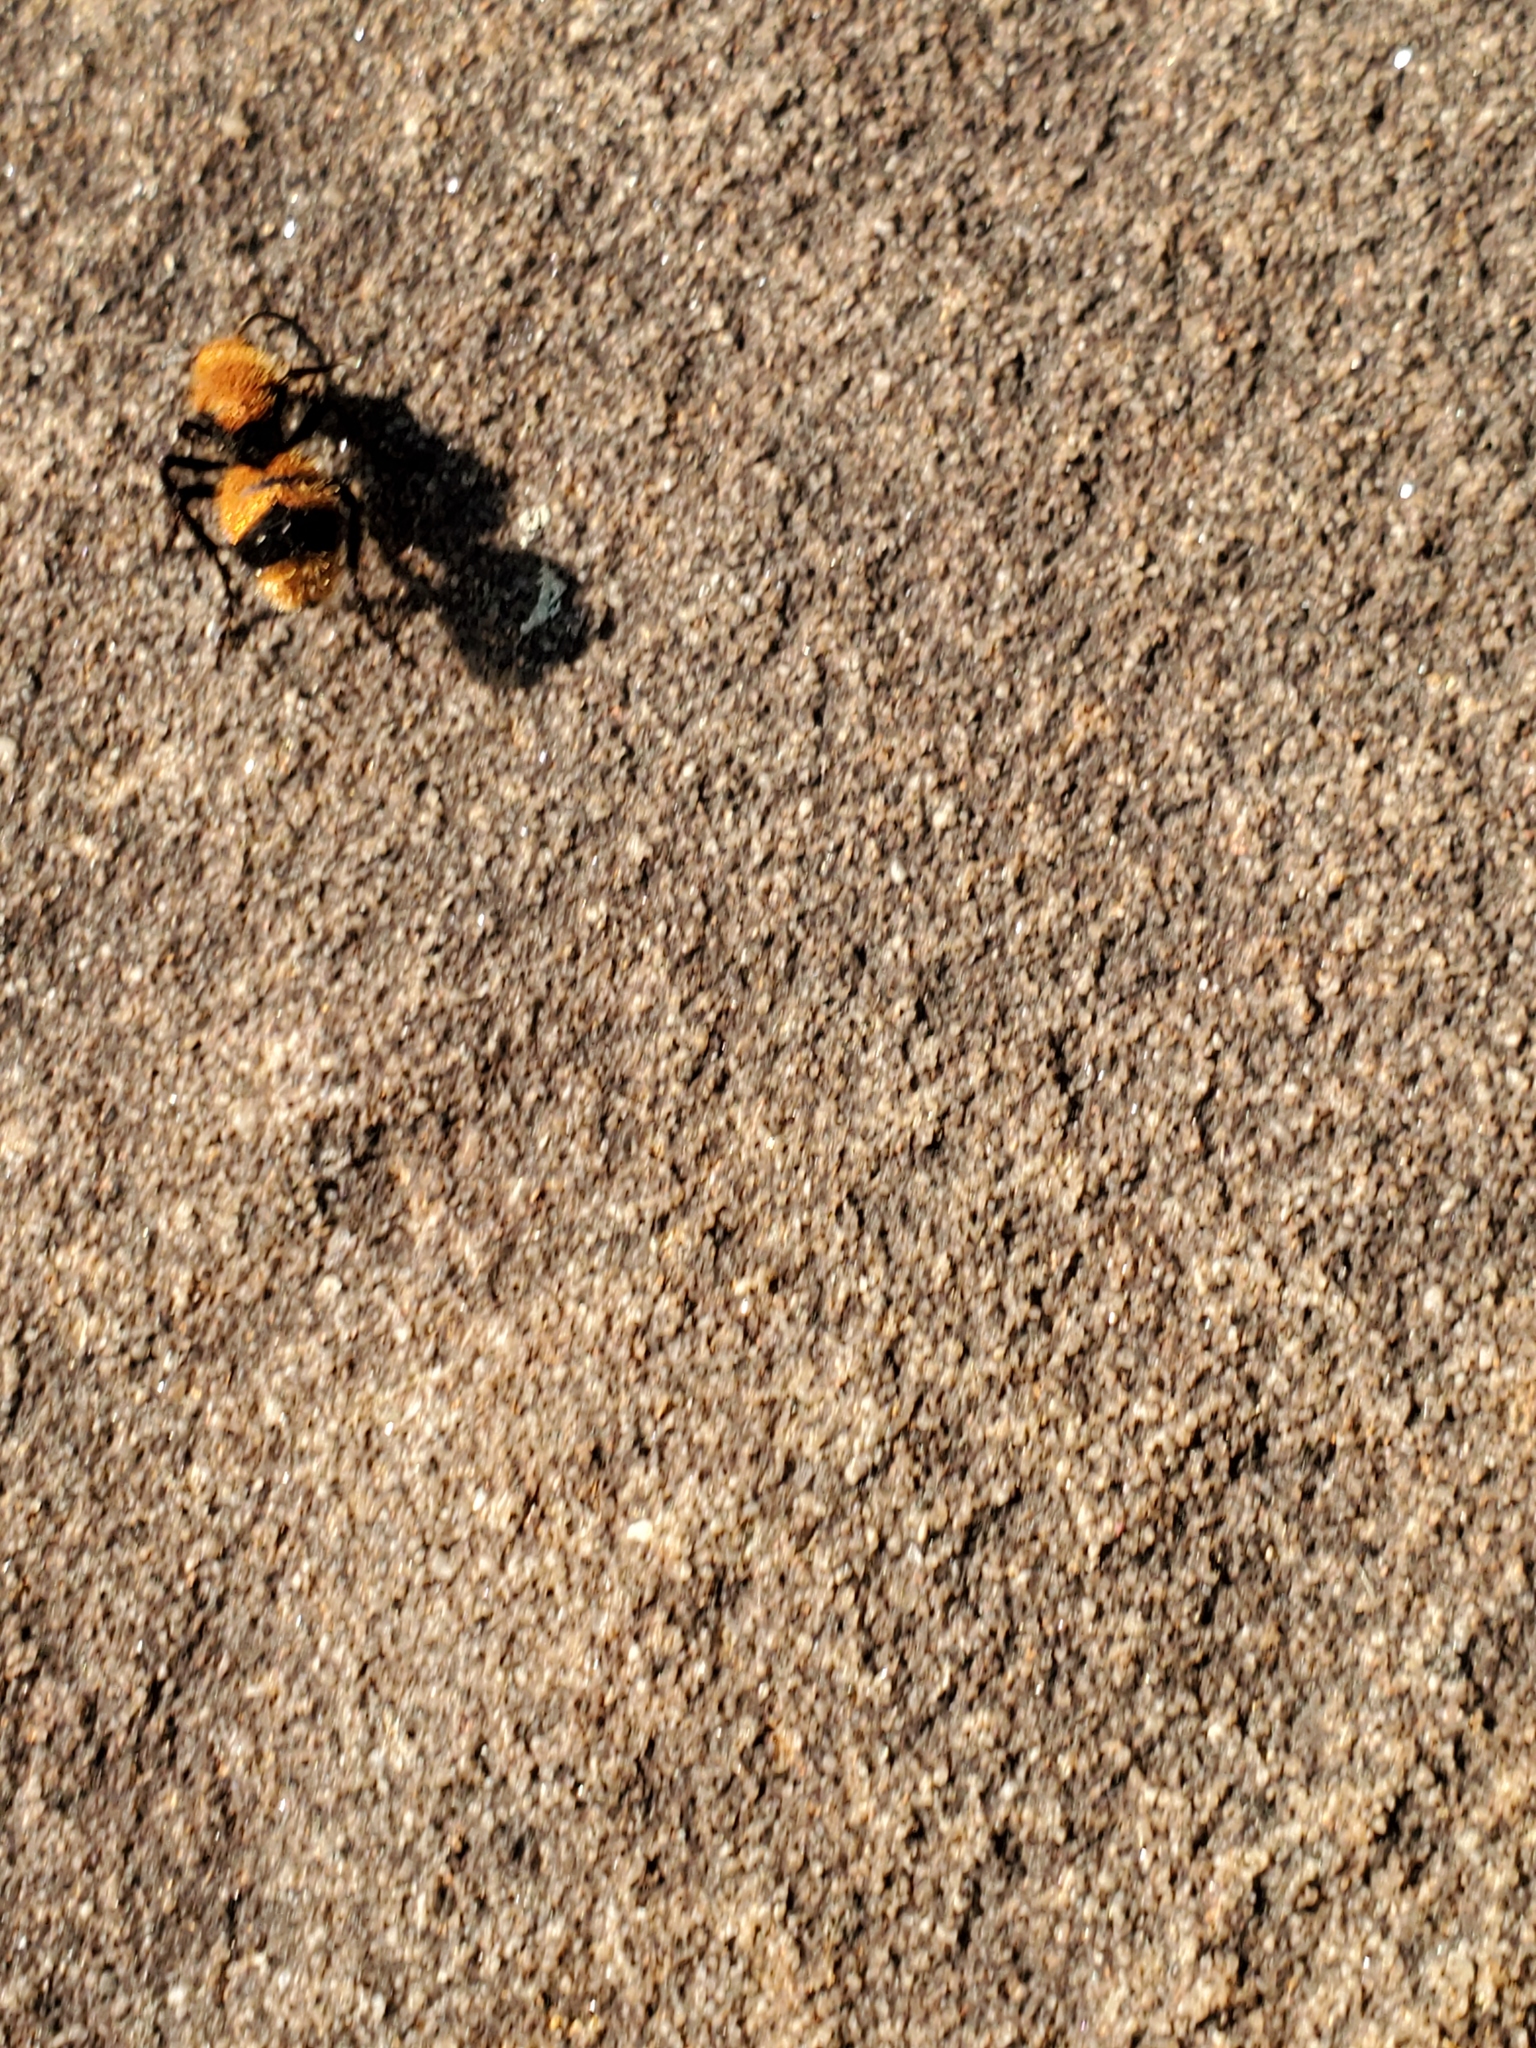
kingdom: Animalia
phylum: Arthropoda
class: Insecta
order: Hymenoptera
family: Mutillidae
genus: Dasymutilla
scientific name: Dasymutilla occidentalis
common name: Common eastern velvet ant
